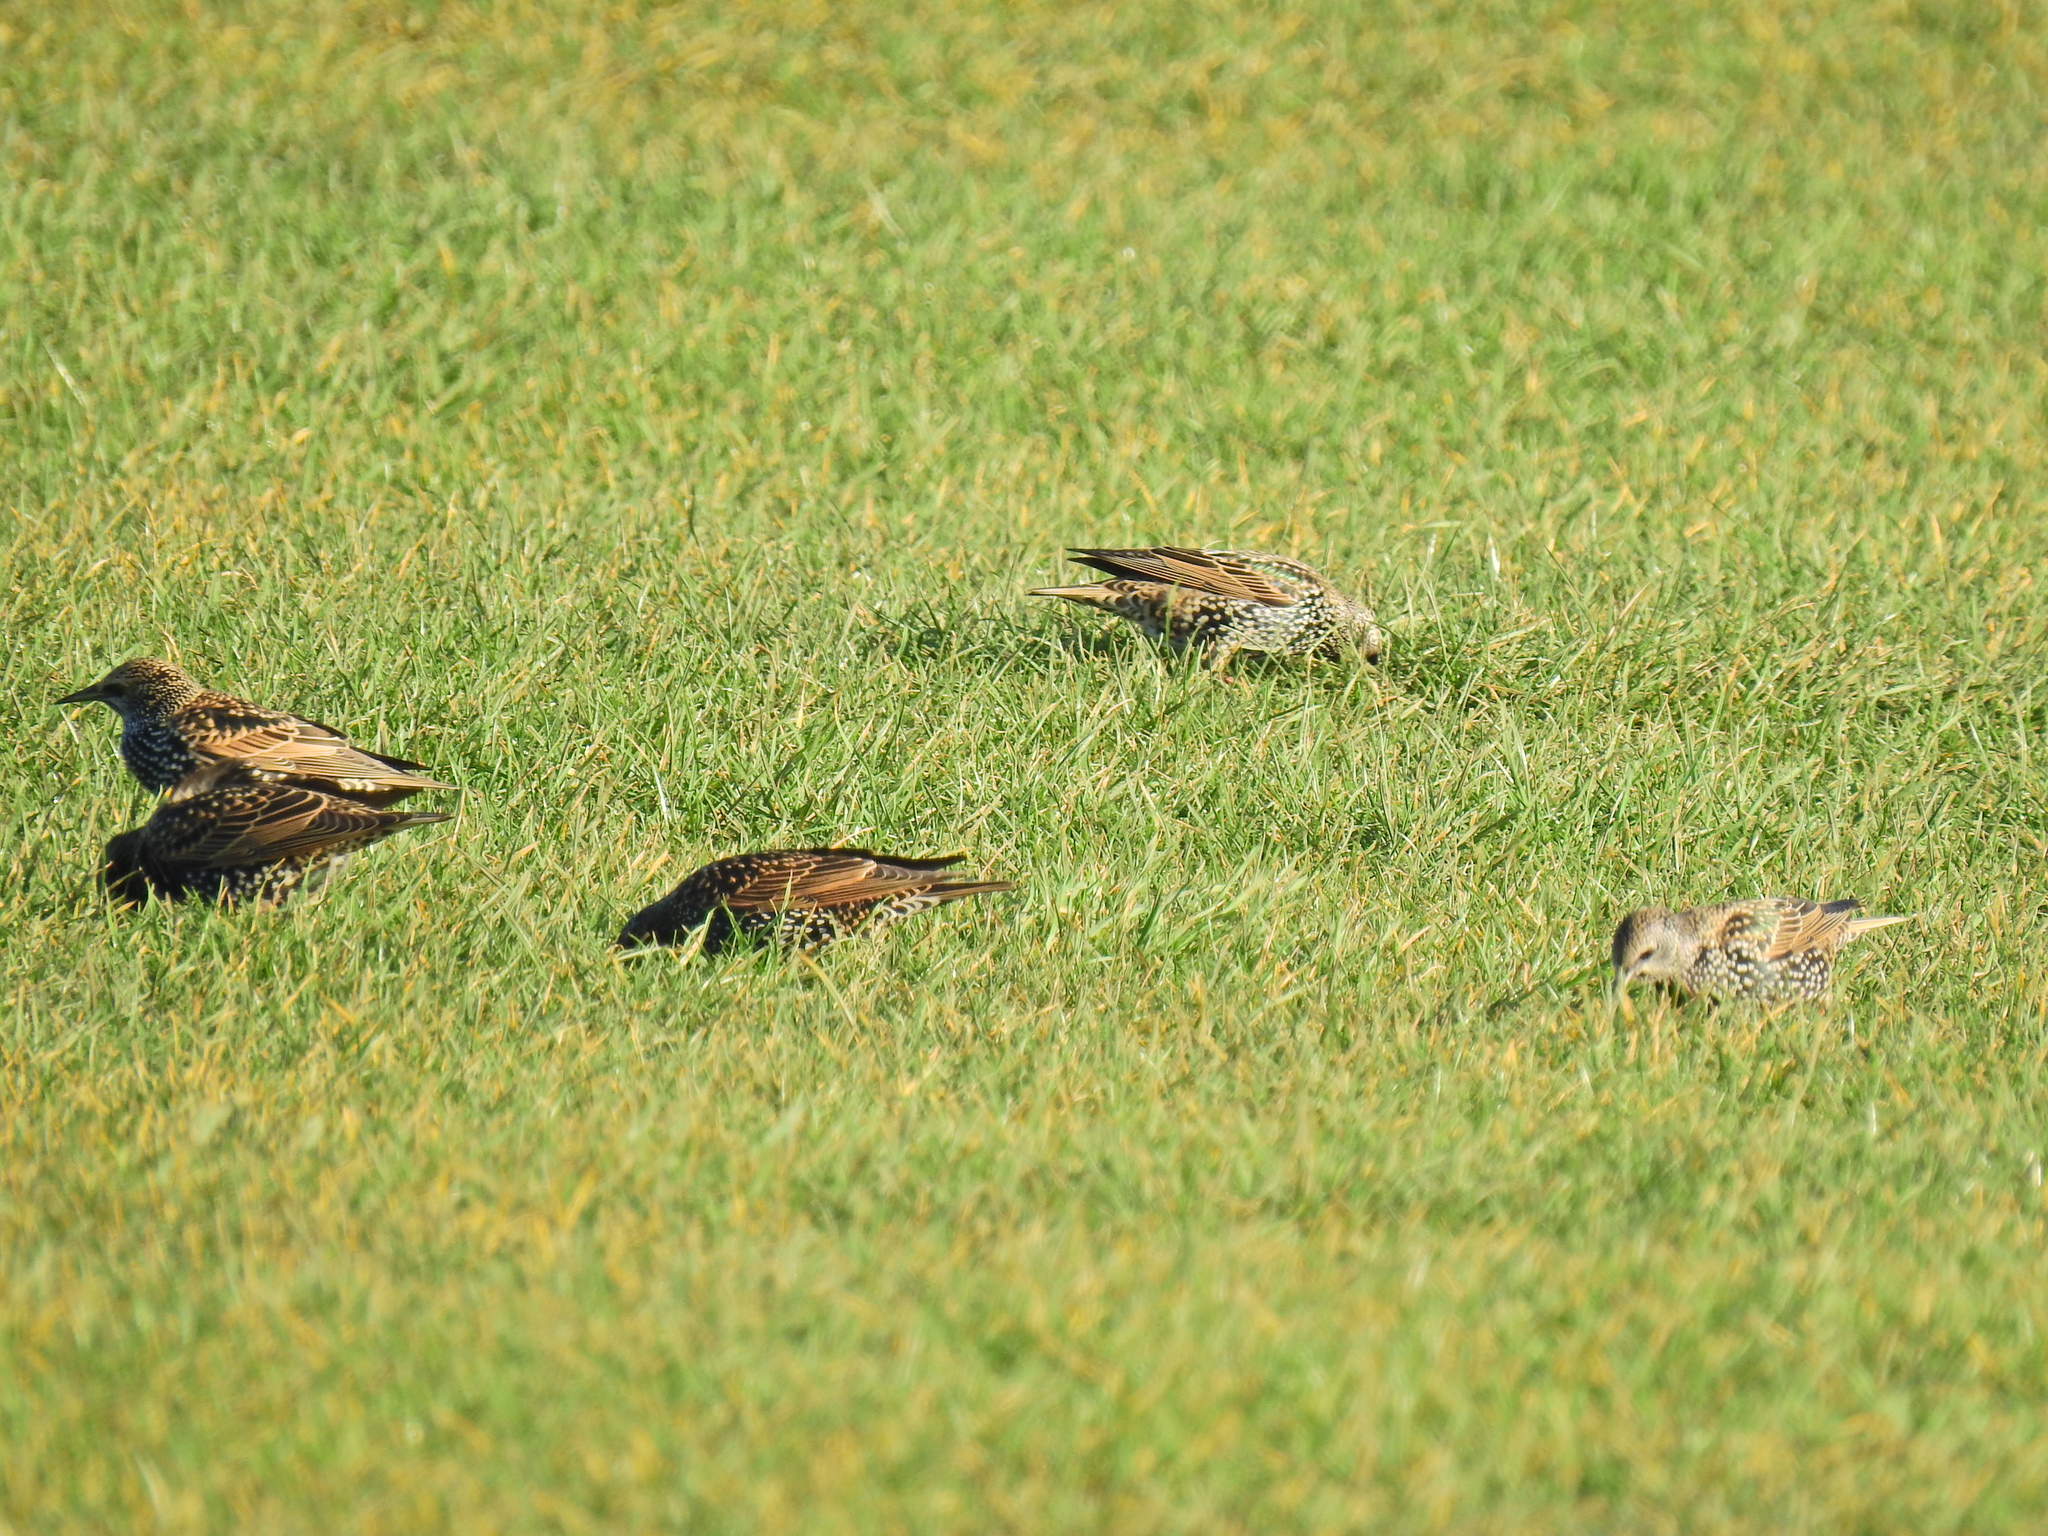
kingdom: Animalia
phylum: Chordata
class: Aves
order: Passeriformes
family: Sturnidae
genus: Sturnus
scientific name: Sturnus vulgaris
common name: Common starling
